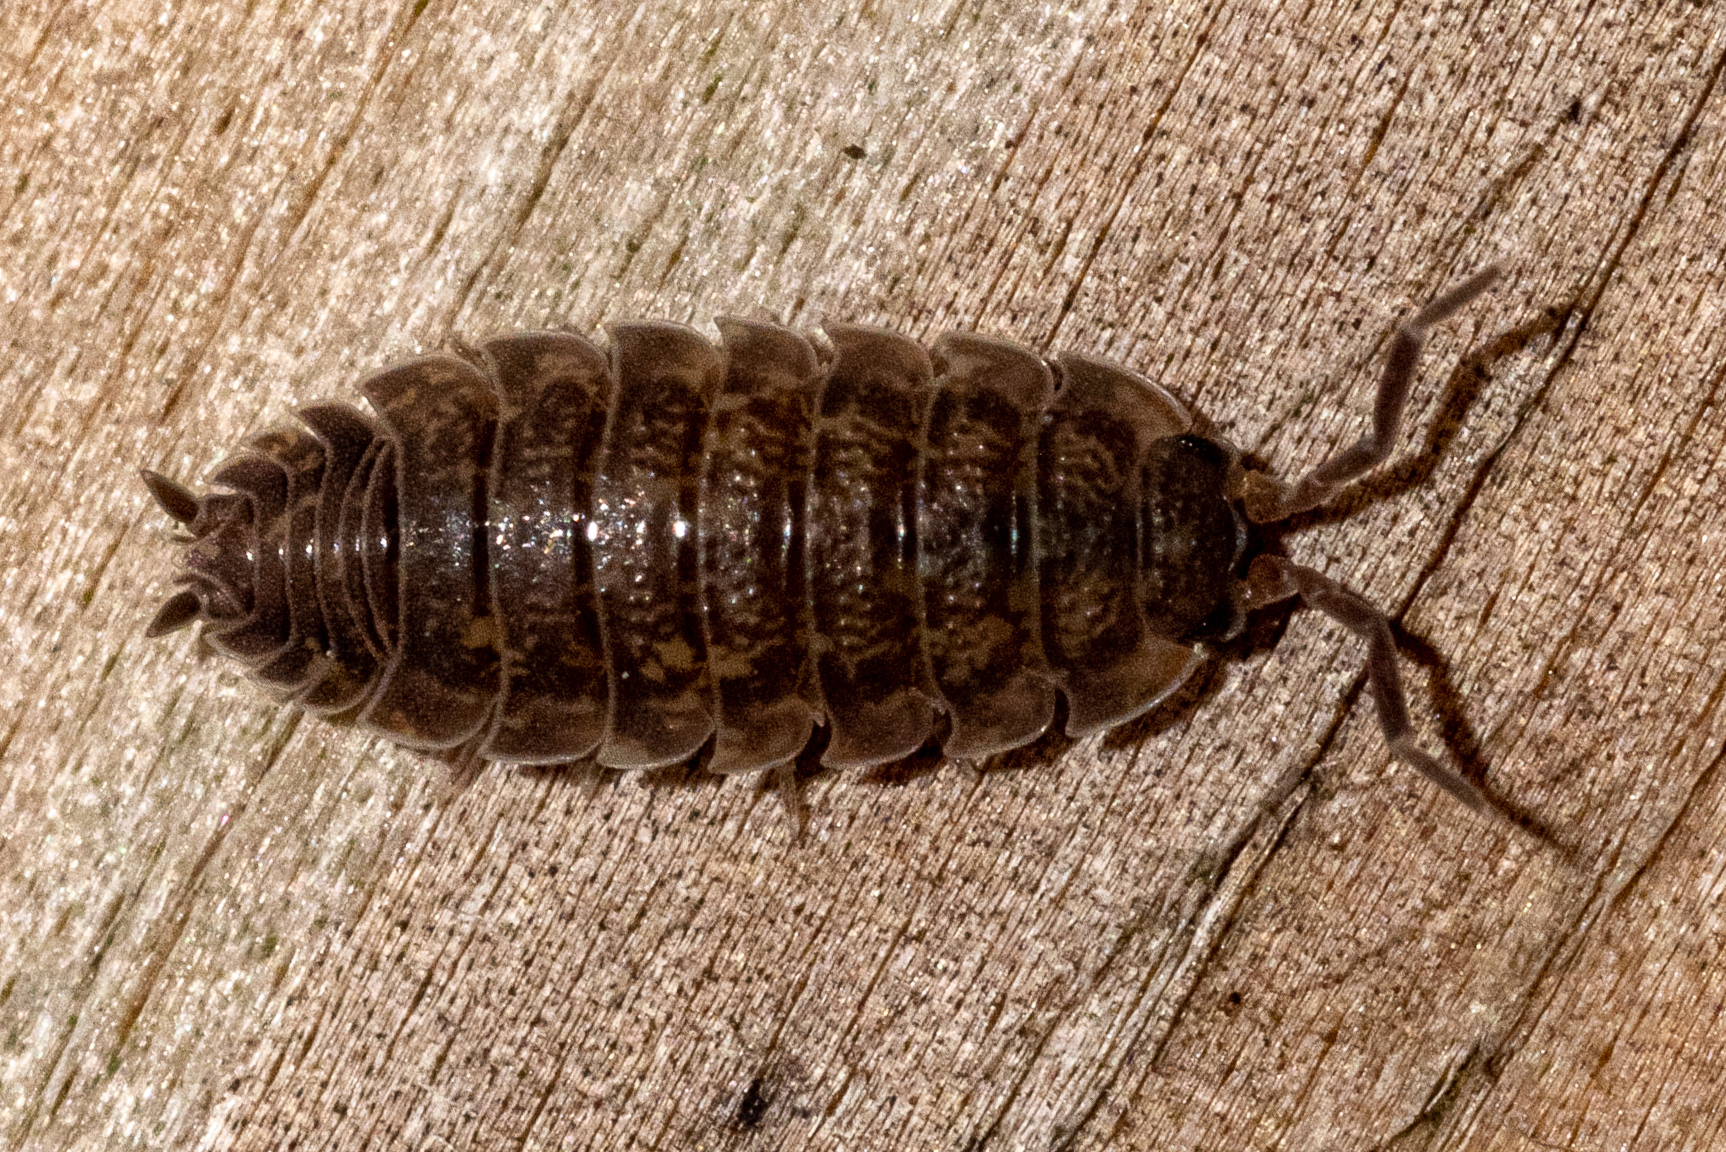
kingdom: Animalia
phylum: Arthropoda
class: Malacostraca
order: Isopoda
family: Trachelipodidae
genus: Trachelipus
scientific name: Trachelipus rathkii
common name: Isopod
